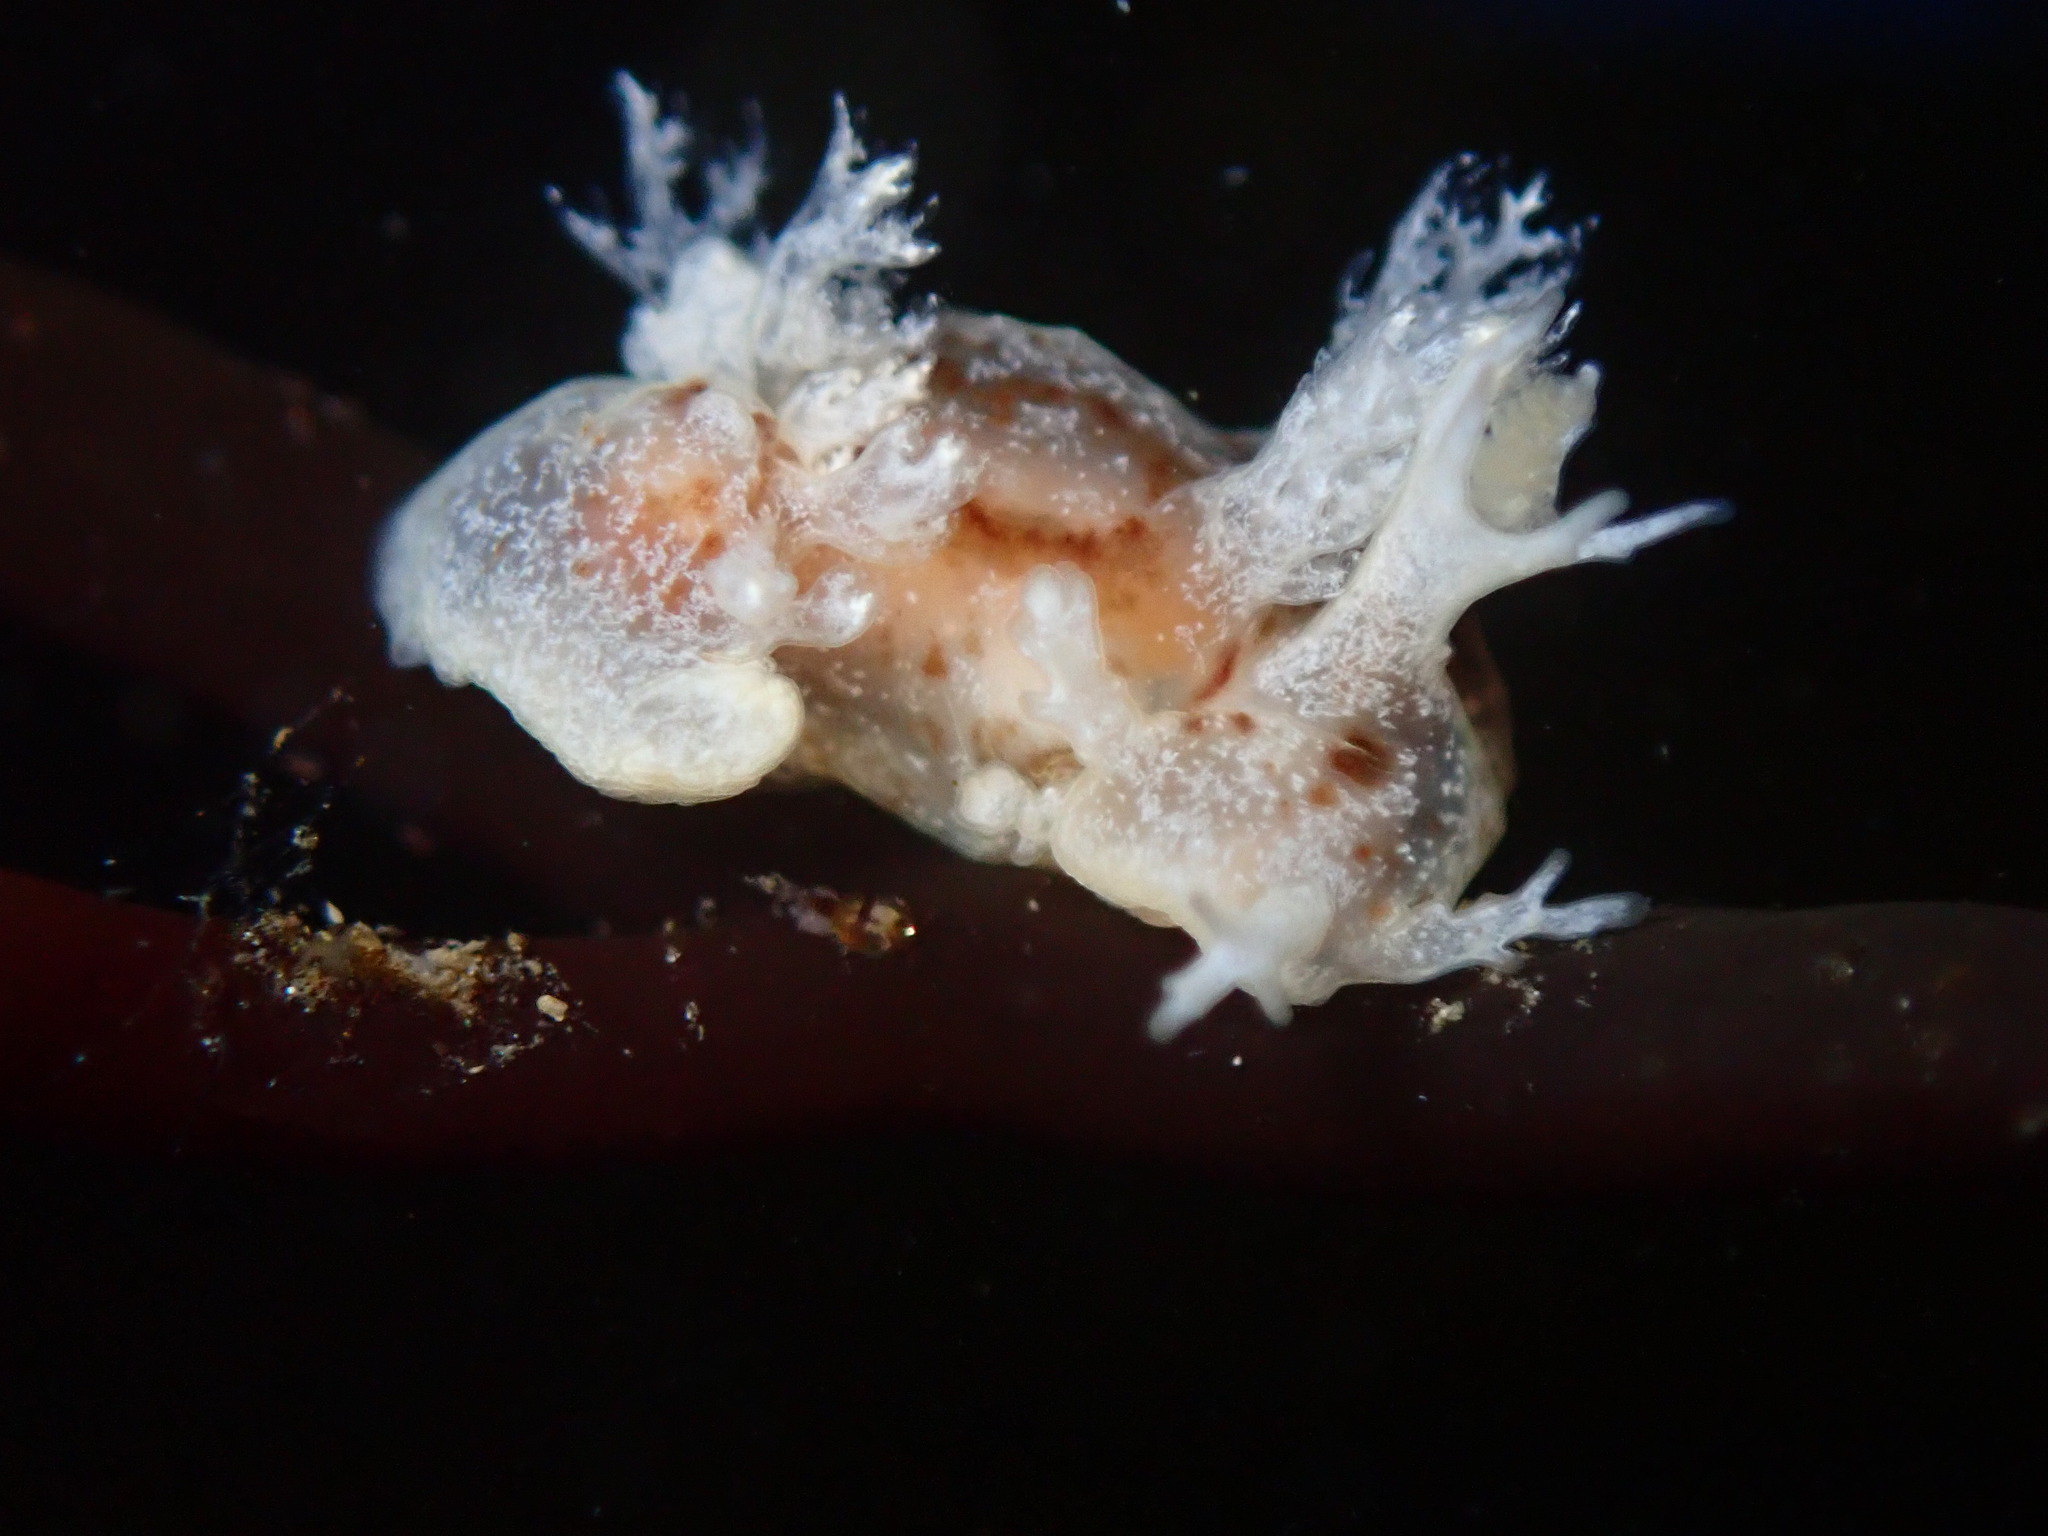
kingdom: Animalia
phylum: Mollusca
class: Gastropoda
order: Nudibranchia
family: Dendronotidae
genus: Dendronotus
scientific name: Dendronotus subramosus
